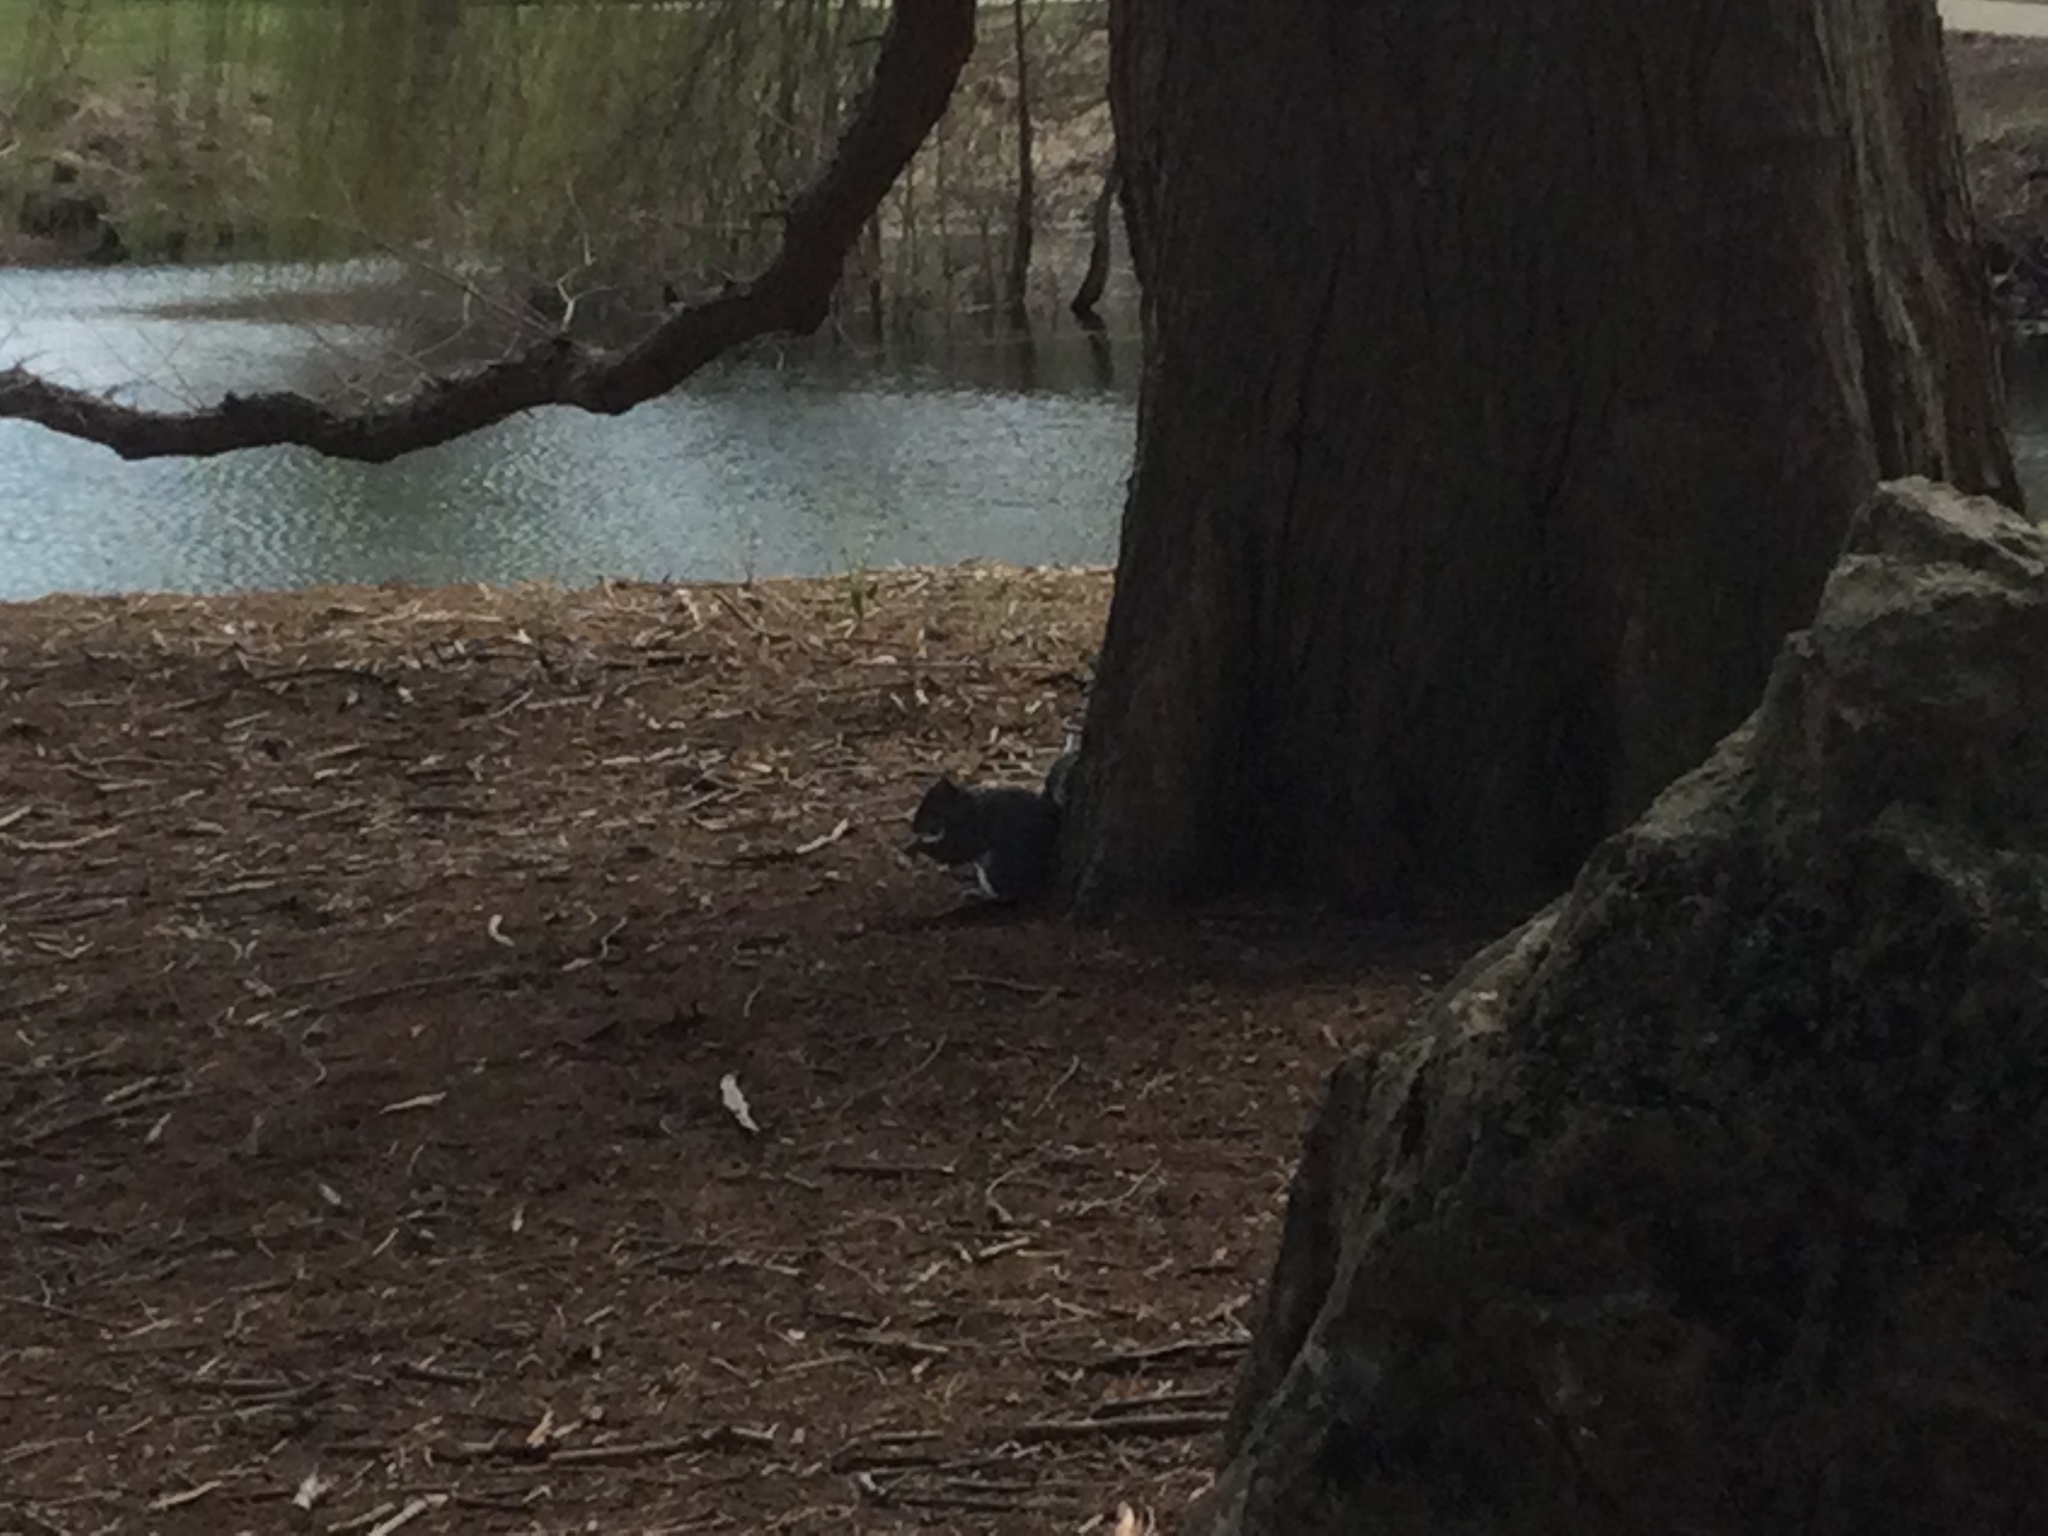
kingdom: Animalia
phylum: Chordata
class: Mammalia
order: Rodentia
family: Sciuridae
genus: Sciurus
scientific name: Sciurus carolinensis
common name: Eastern gray squirrel
